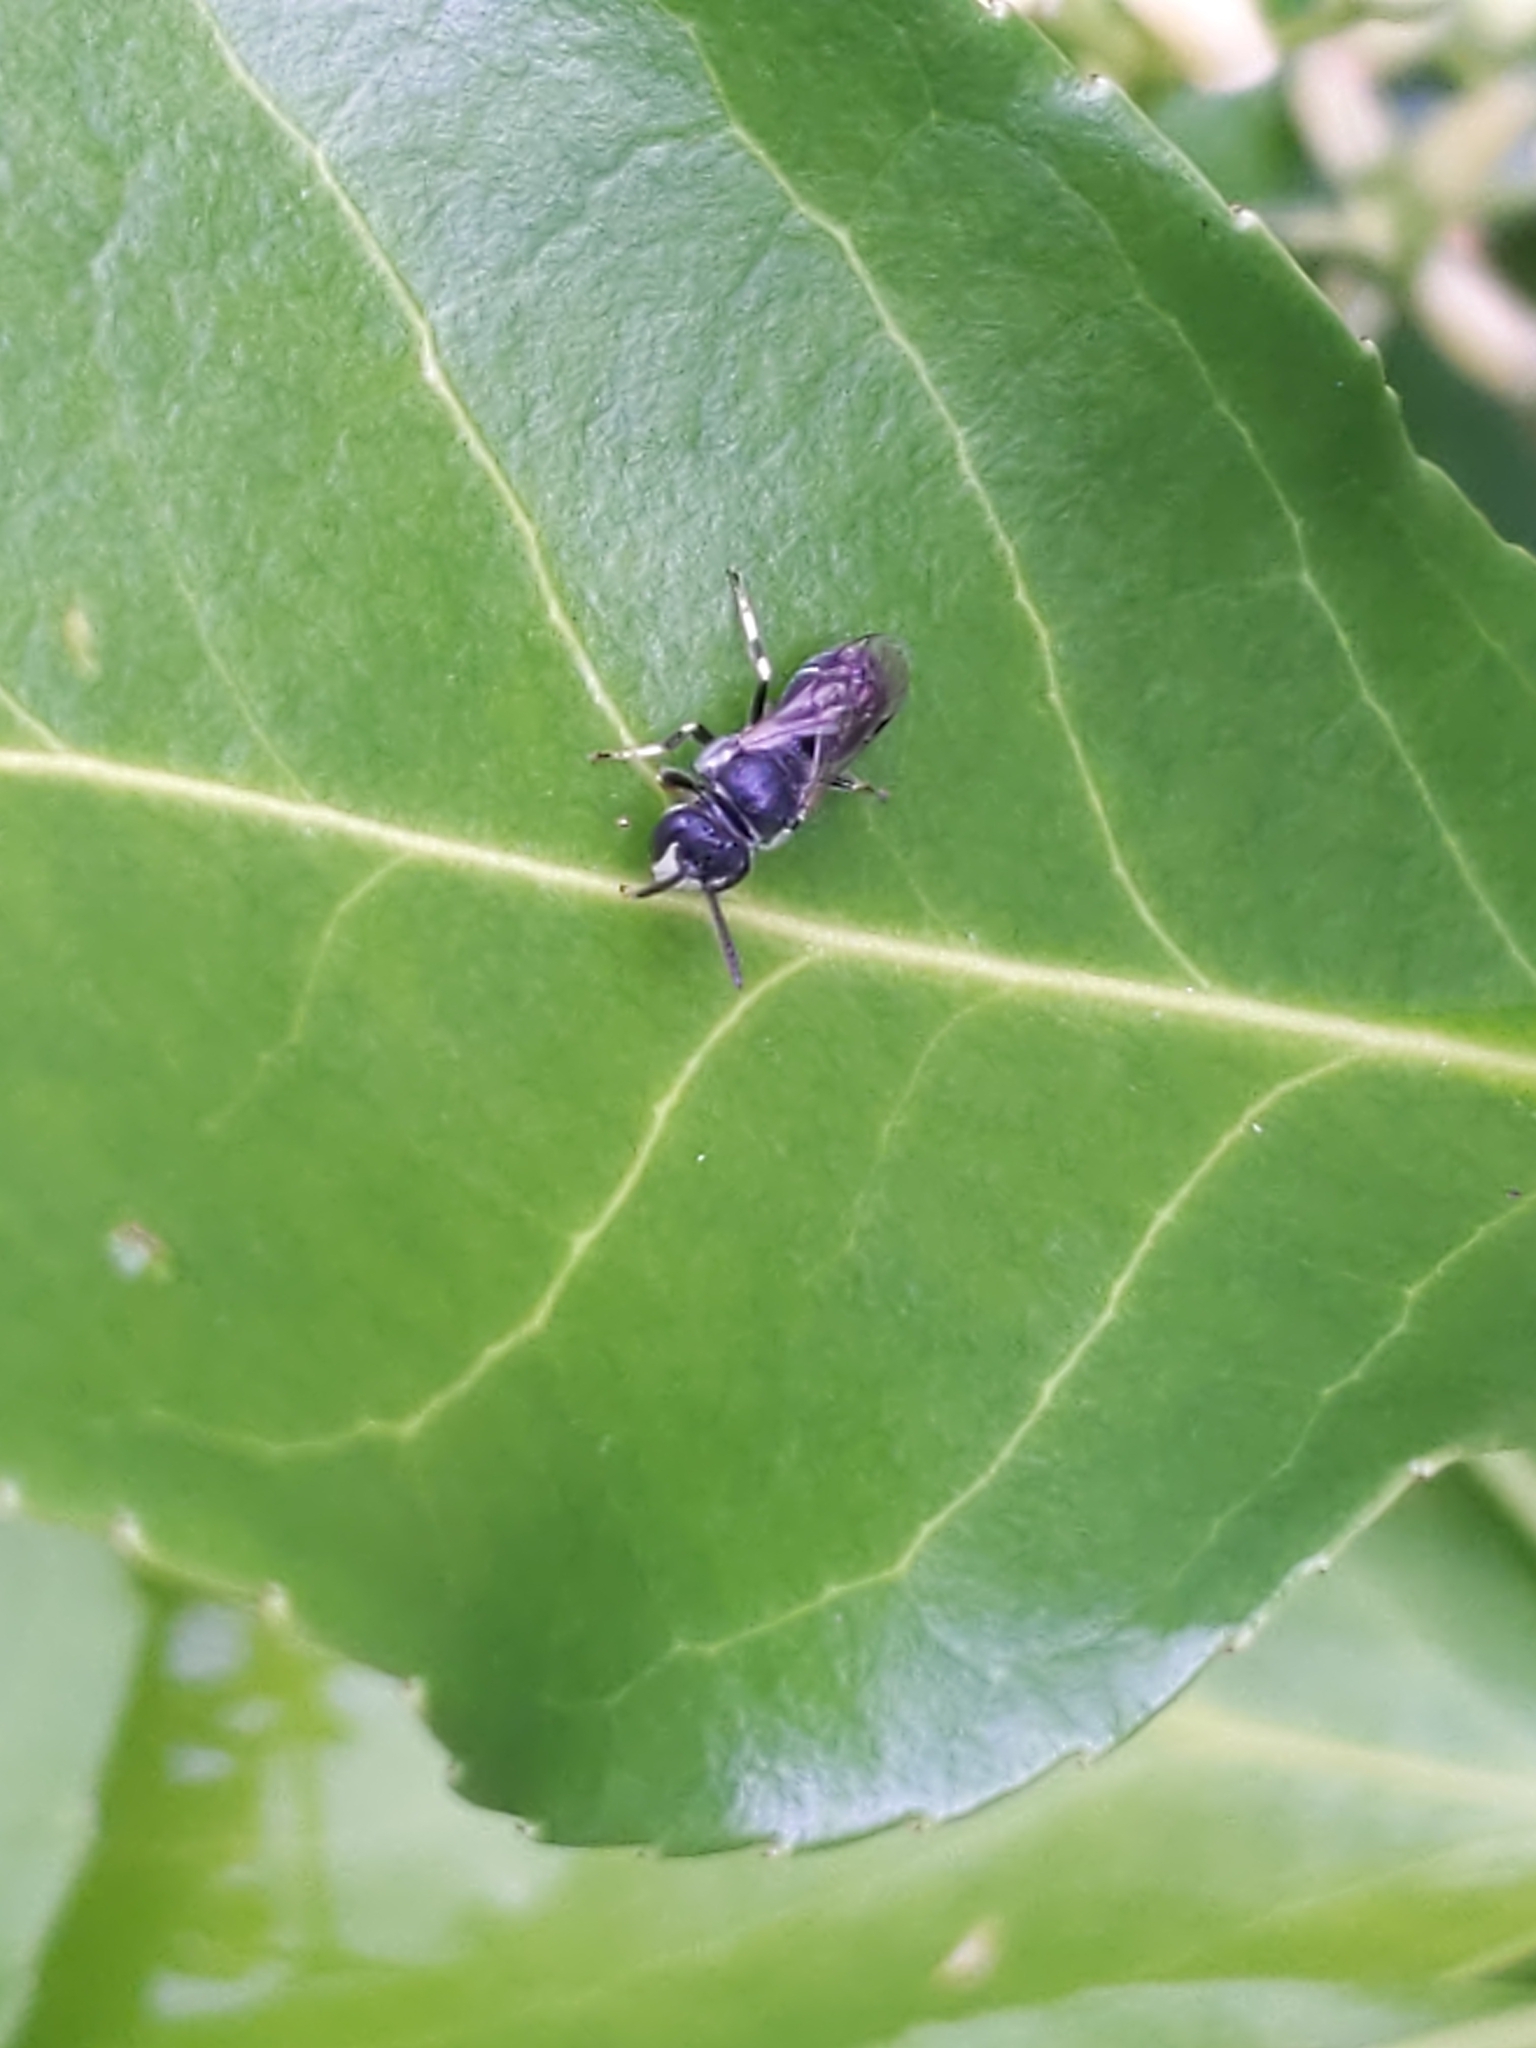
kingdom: Animalia
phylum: Arthropoda
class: Insecta
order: Hymenoptera
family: Colletidae
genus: Hylaeus
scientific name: Hylaeus hyalinatus
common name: Hyaline masked bee
